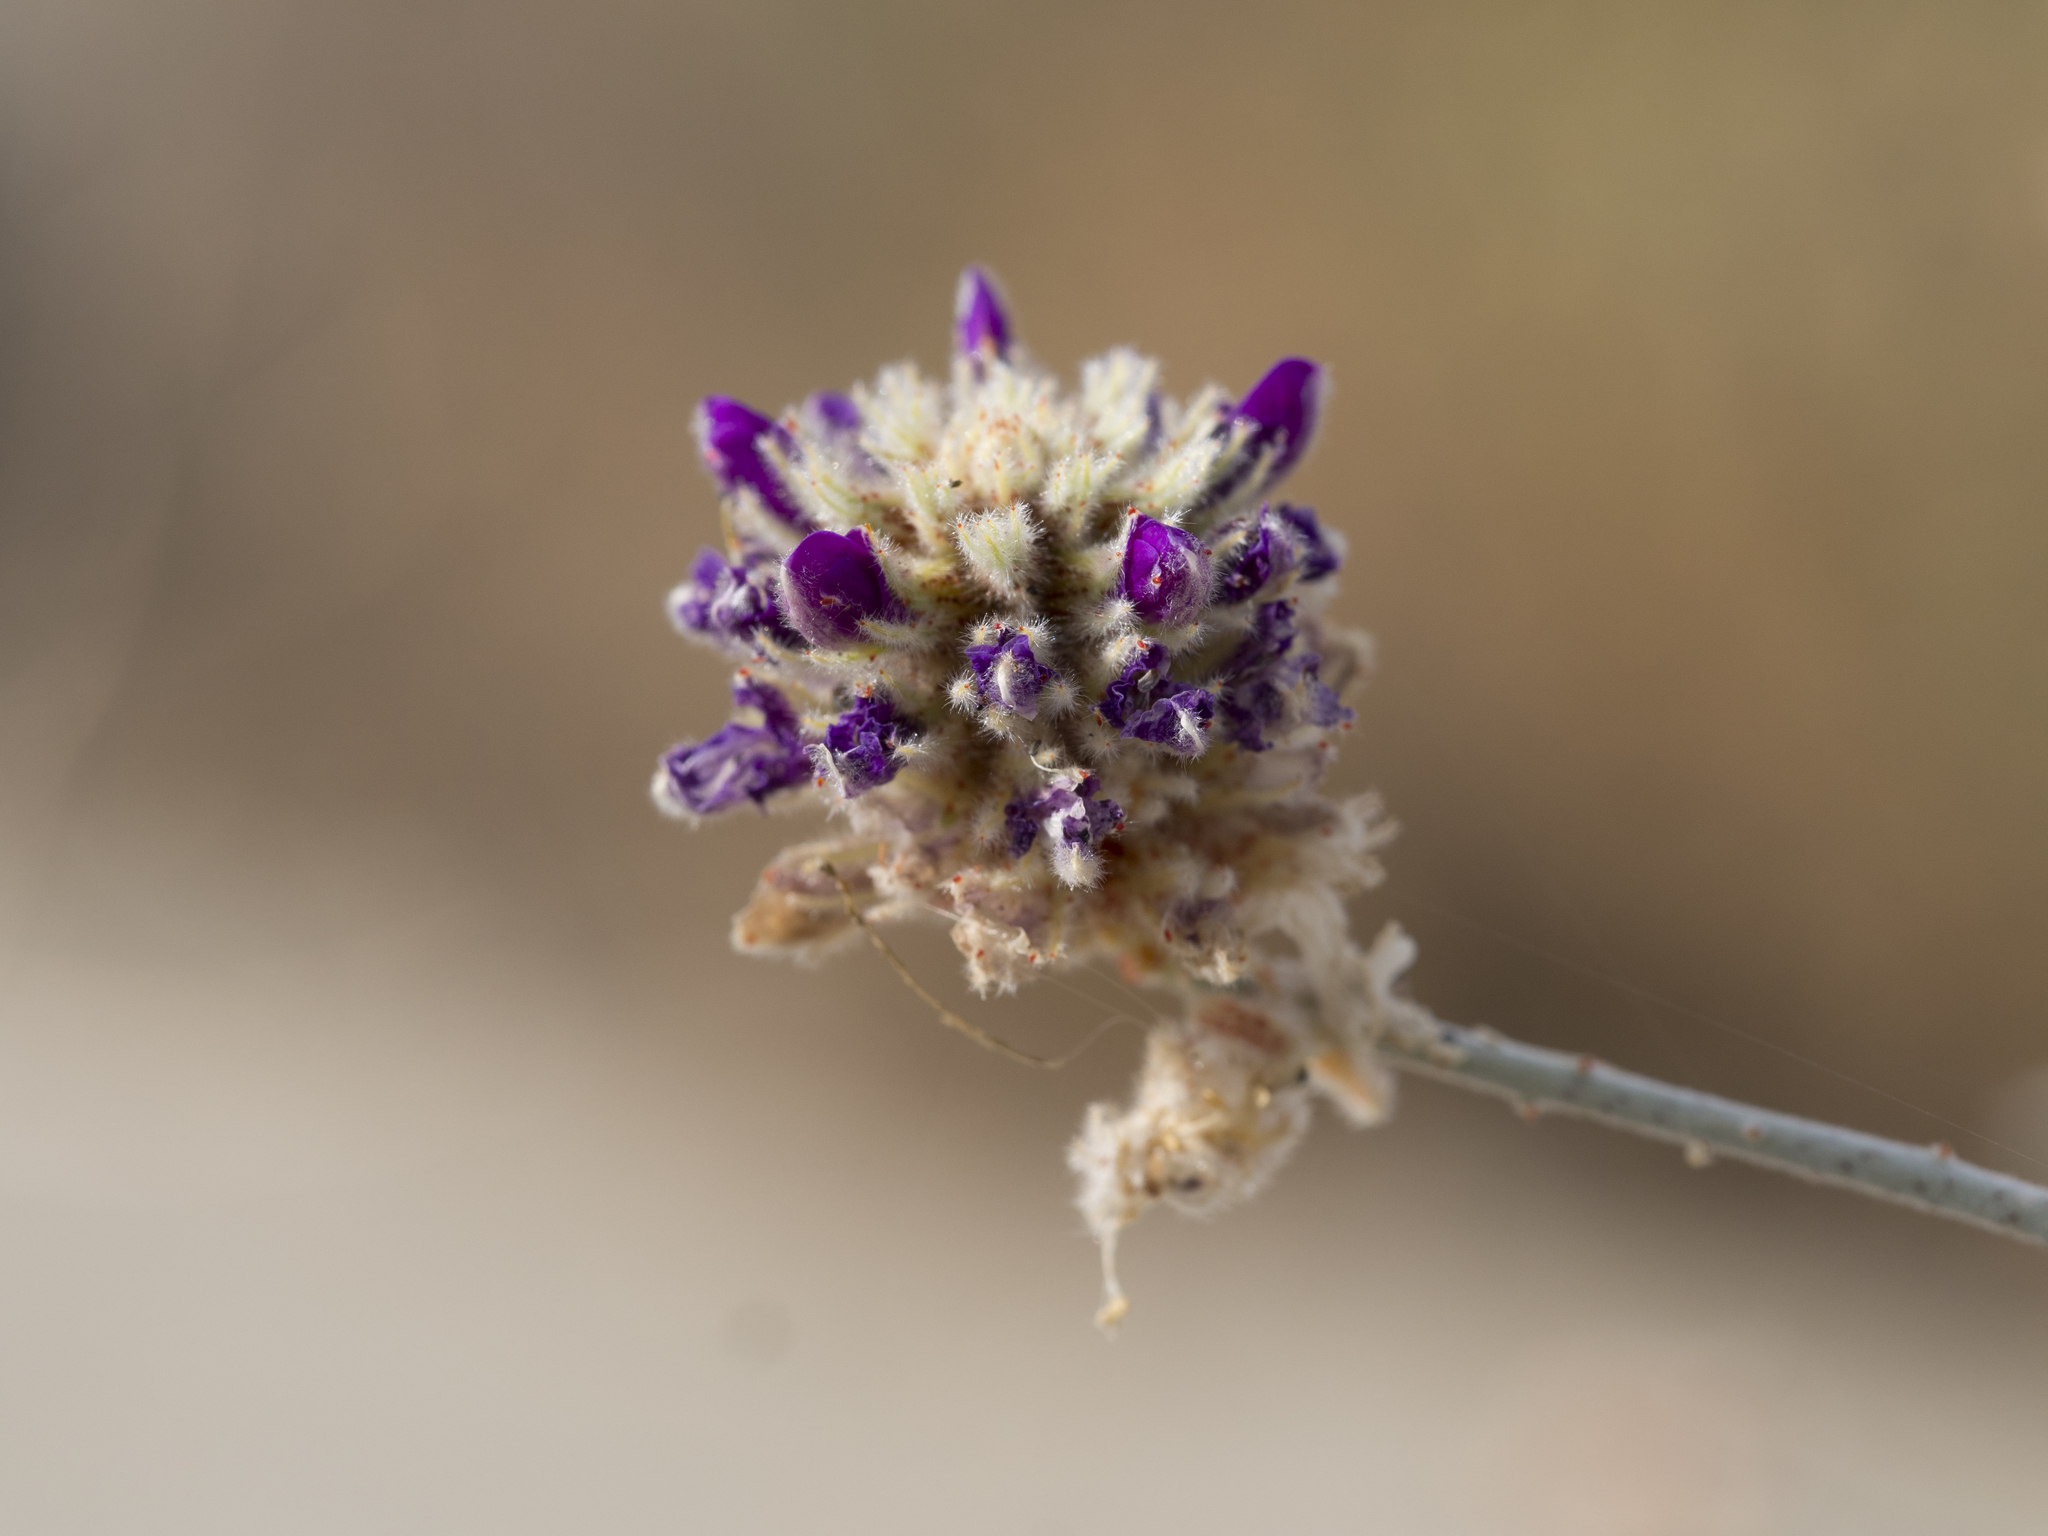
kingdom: Plantae
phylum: Tracheophyta
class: Magnoliopsida
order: Fabales
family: Fabaceae
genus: Psorothamnus
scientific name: Psorothamnus emoryi
